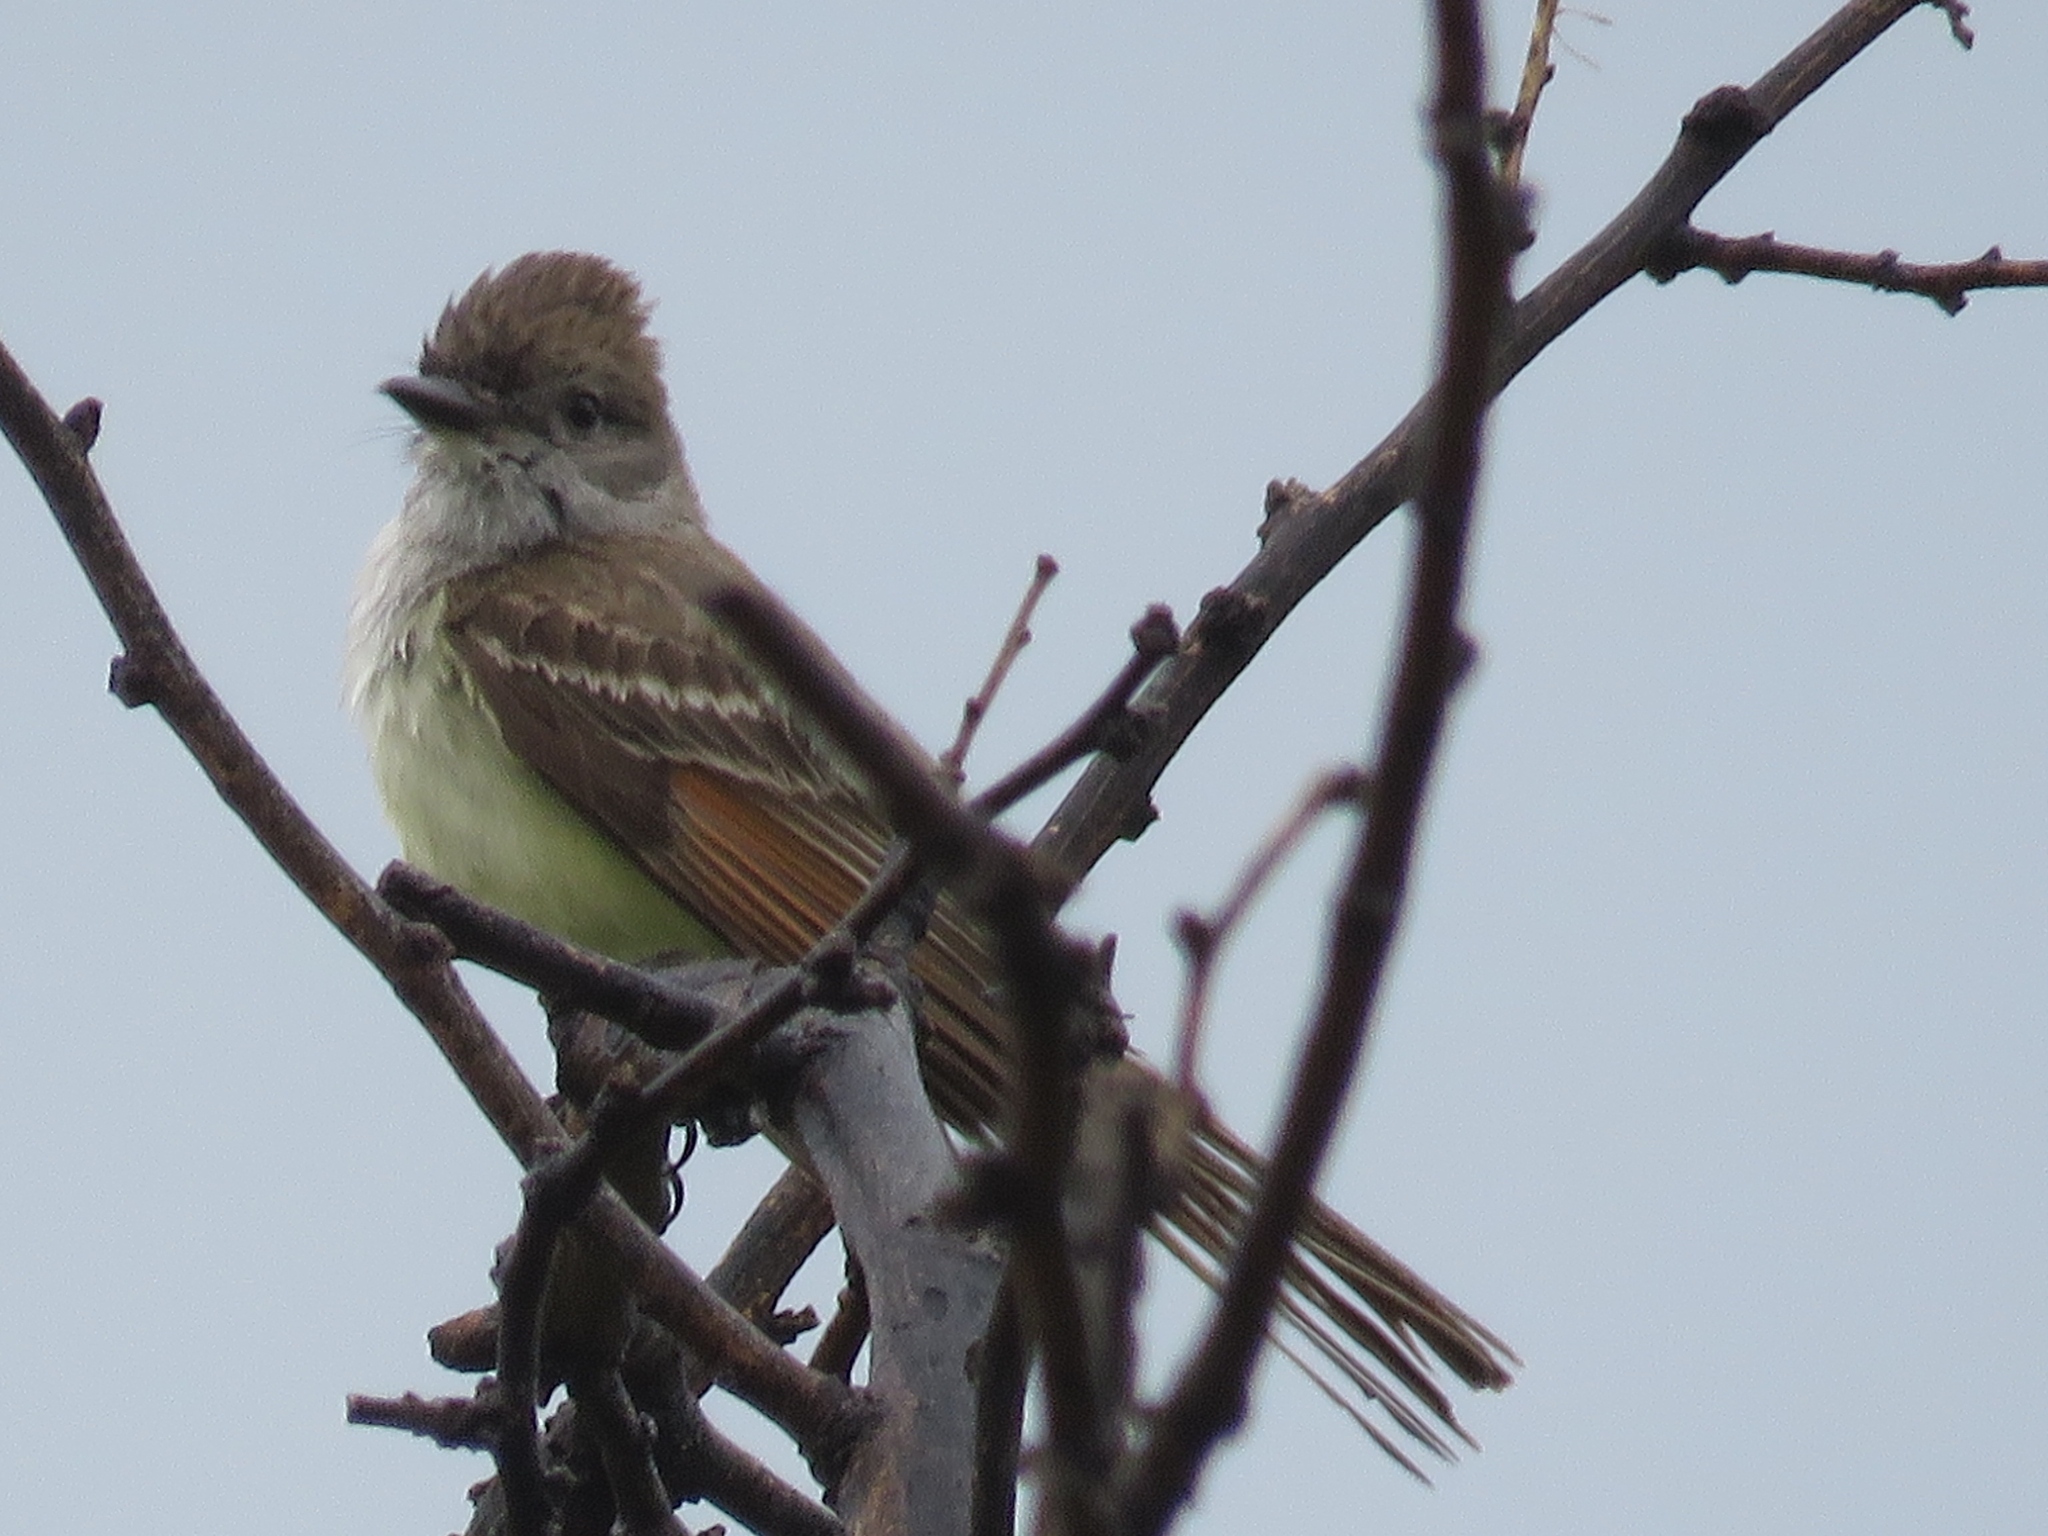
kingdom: Animalia
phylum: Chordata
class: Aves
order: Passeriformes
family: Tyrannidae
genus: Myiarchus
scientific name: Myiarchus cinerascens
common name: Ash-throated flycatcher
